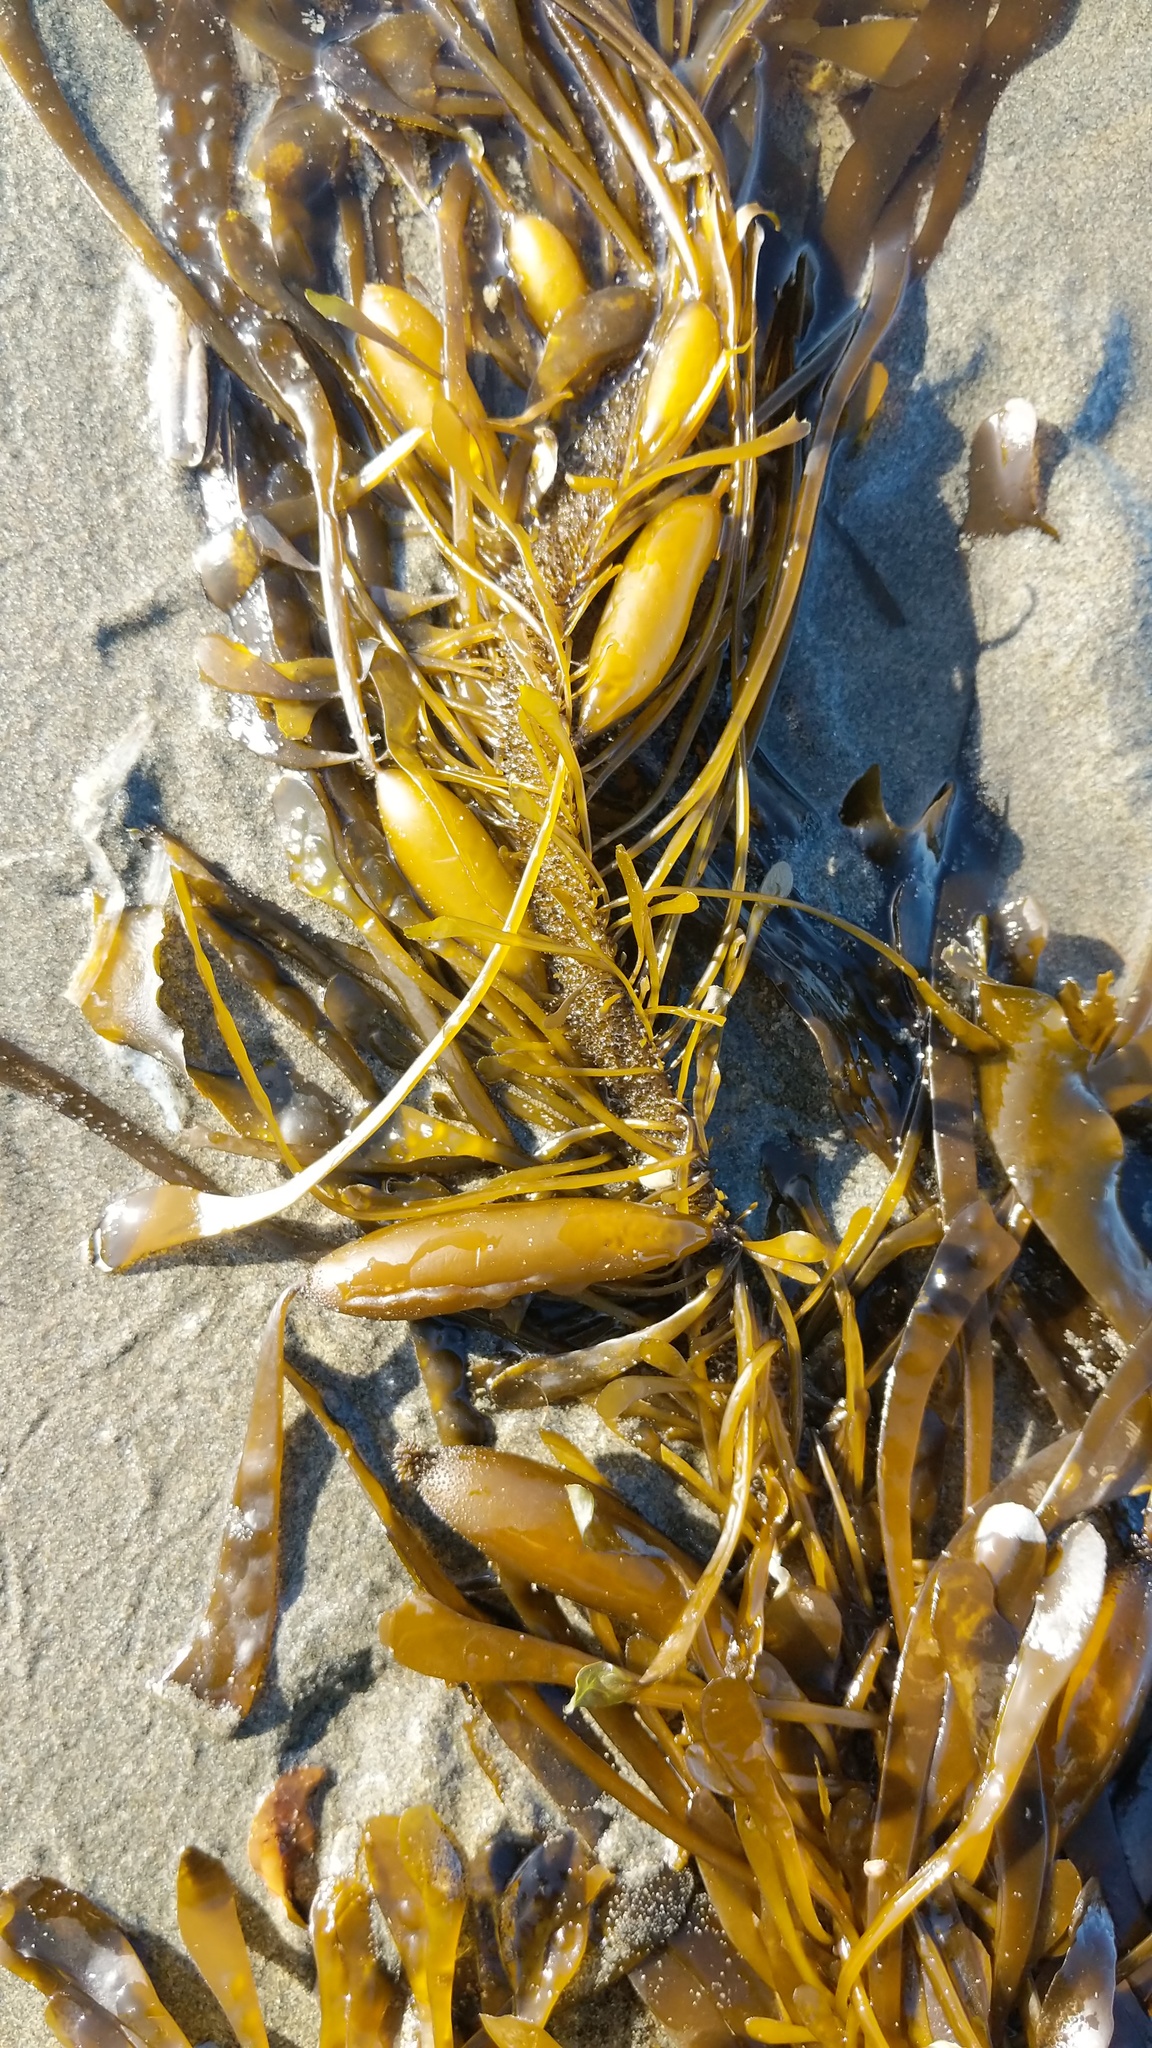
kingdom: Chromista
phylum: Ochrophyta
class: Phaeophyceae
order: Laminariales
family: Lessoniaceae
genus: Egregia
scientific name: Egregia menziesii
